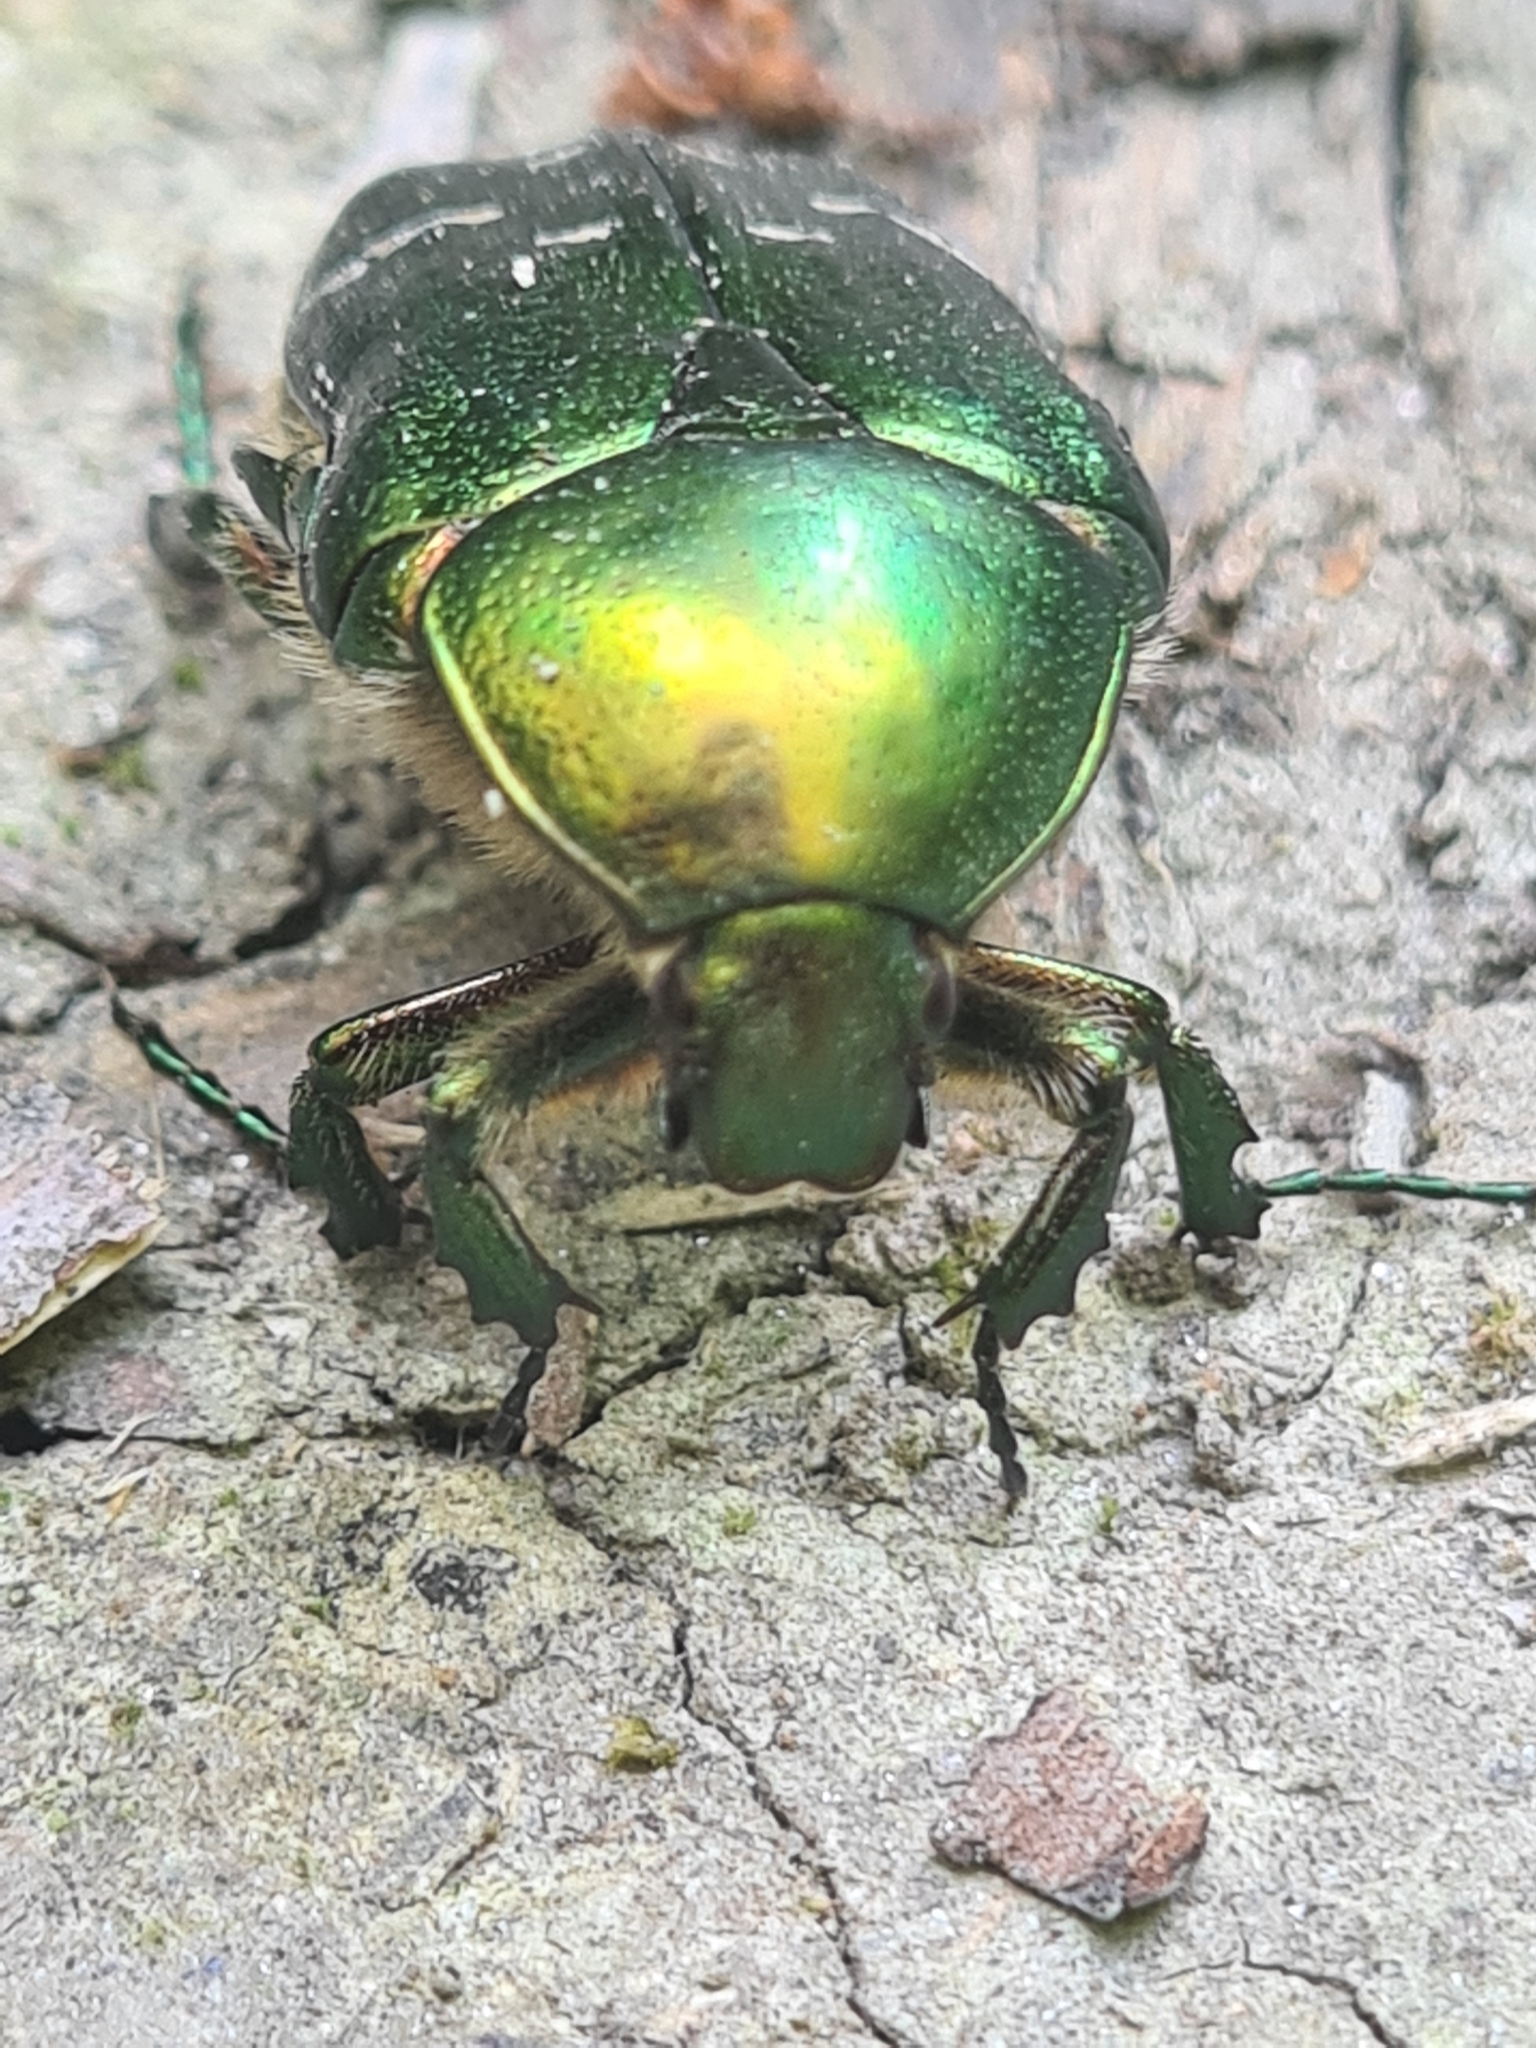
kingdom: Animalia
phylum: Arthropoda
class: Insecta
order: Coleoptera
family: Scarabaeidae
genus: Cetonia
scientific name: Cetonia aurata
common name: Rose chafer
